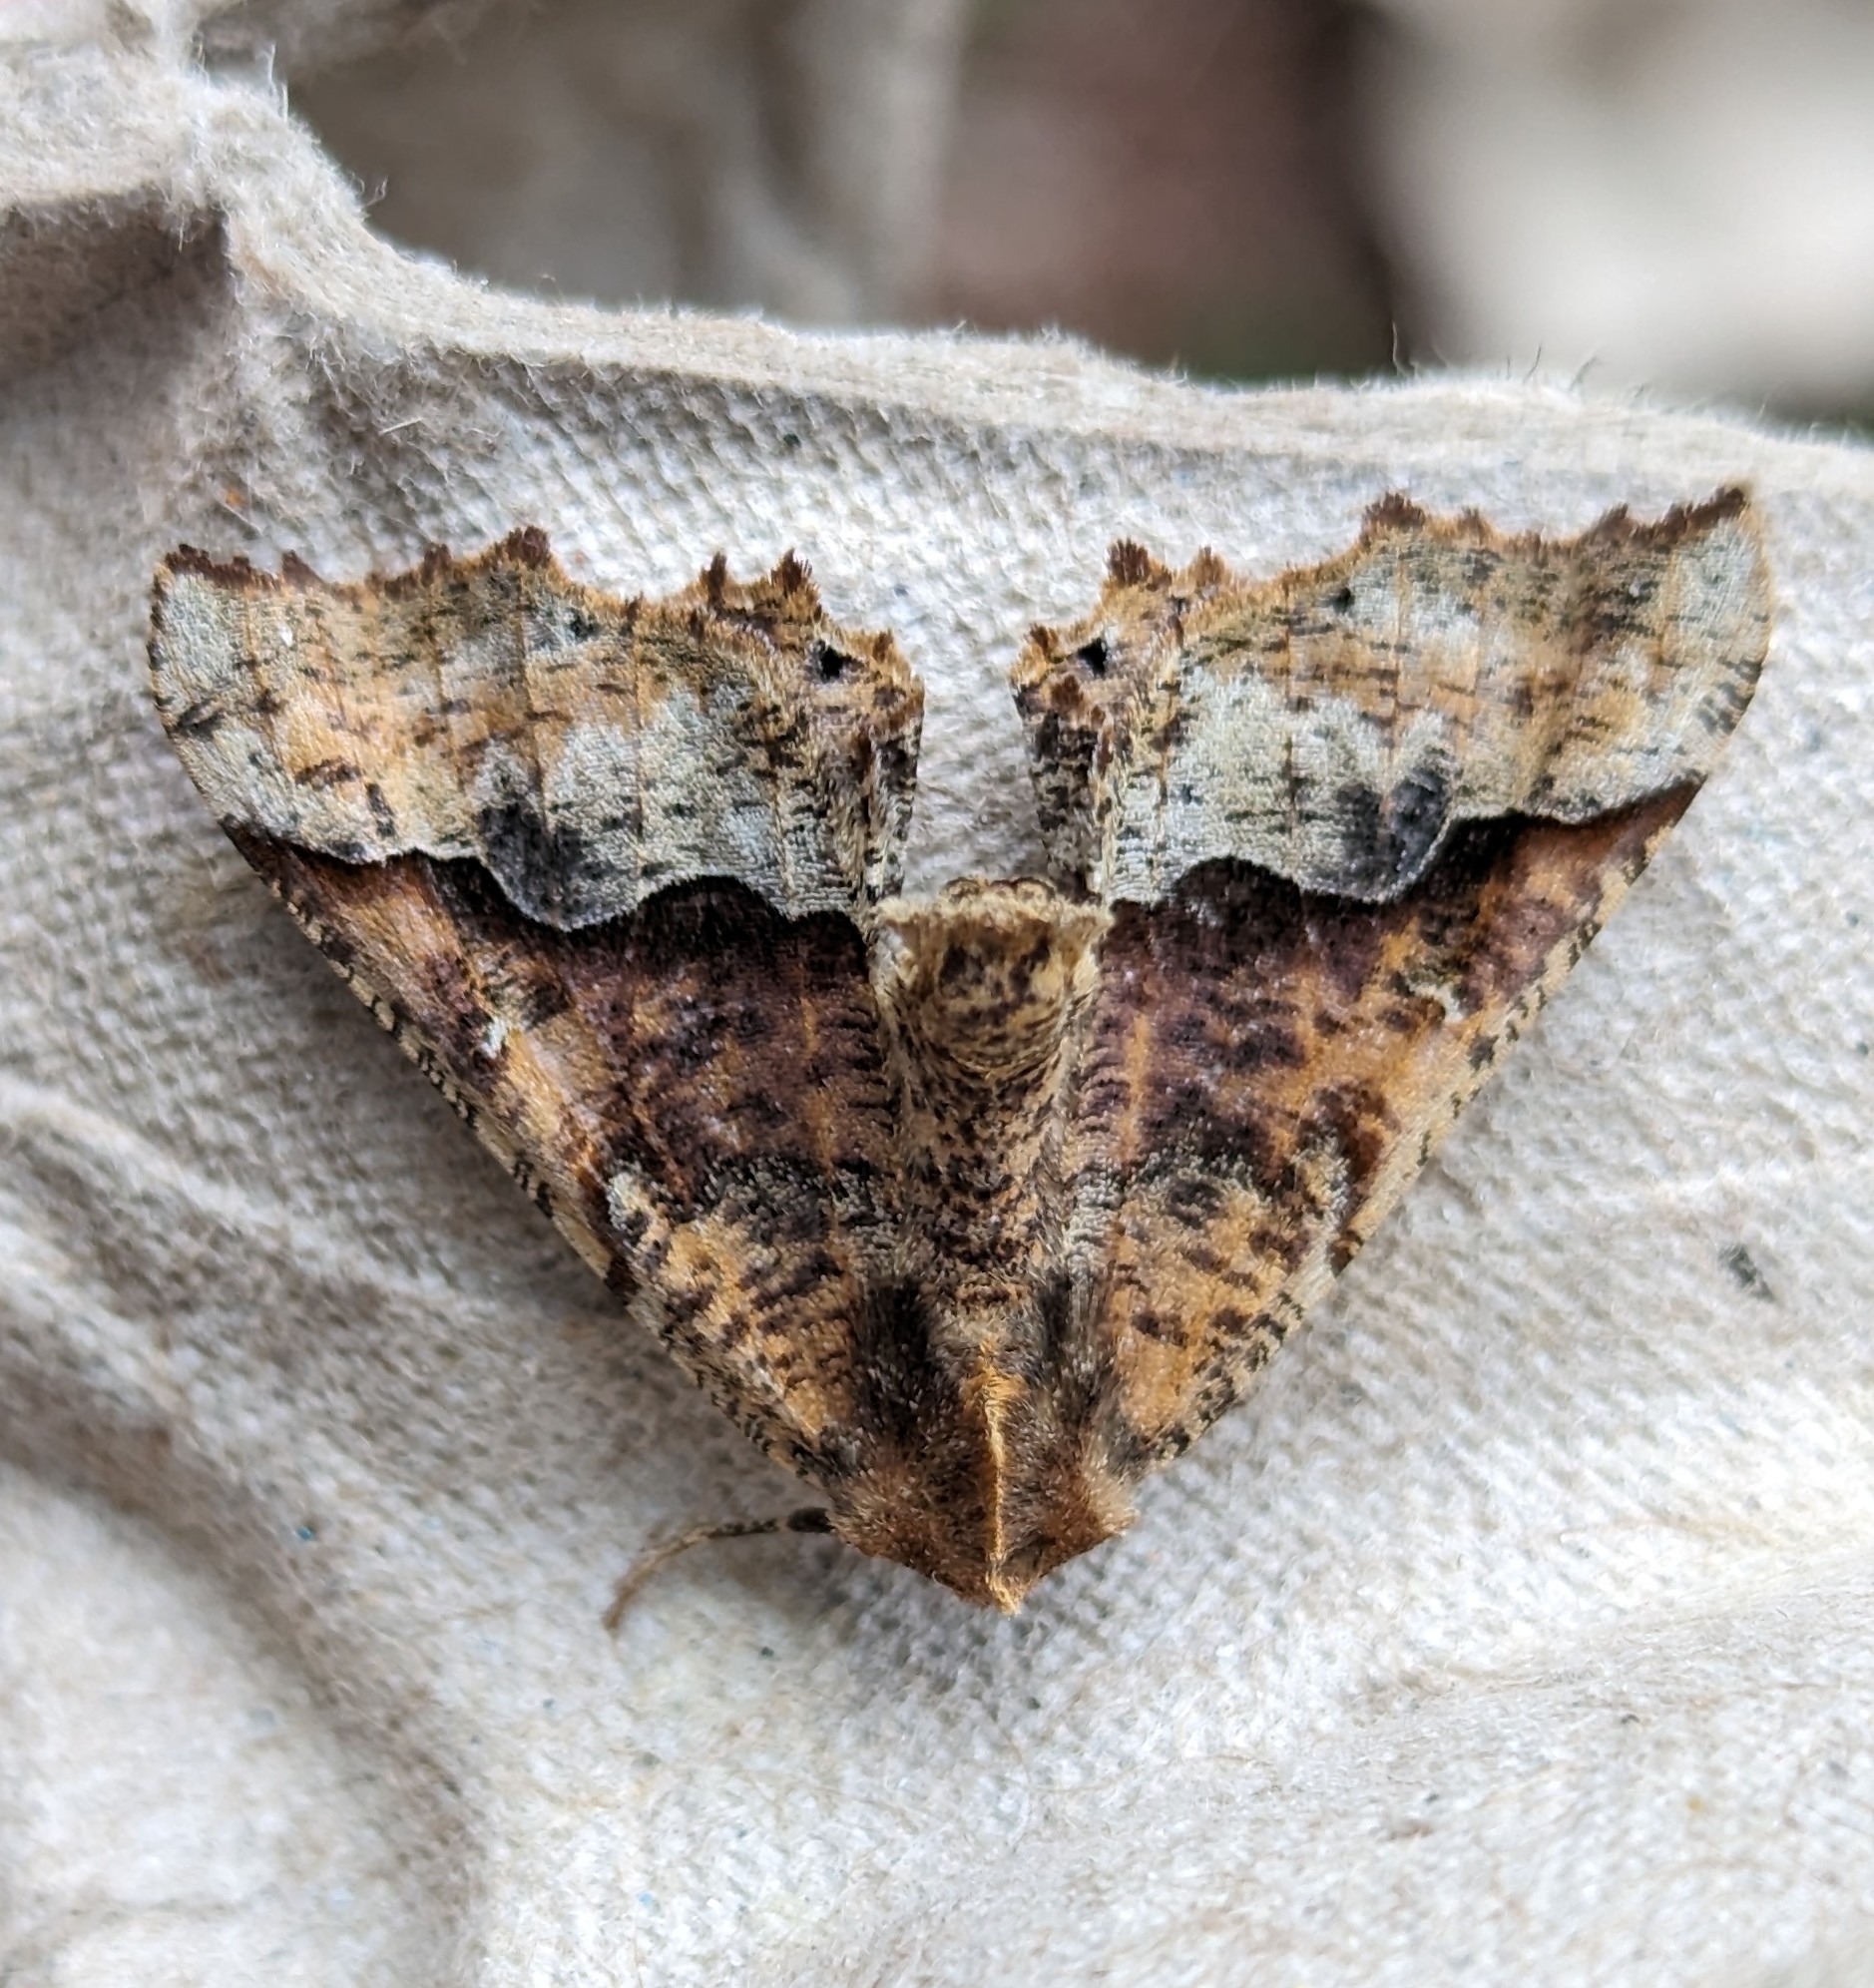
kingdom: Animalia
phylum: Arthropoda
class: Insecta
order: Lepidoptera
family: Geometridae
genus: Pero
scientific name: Pero morrisonaria
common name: Morrison's pero
